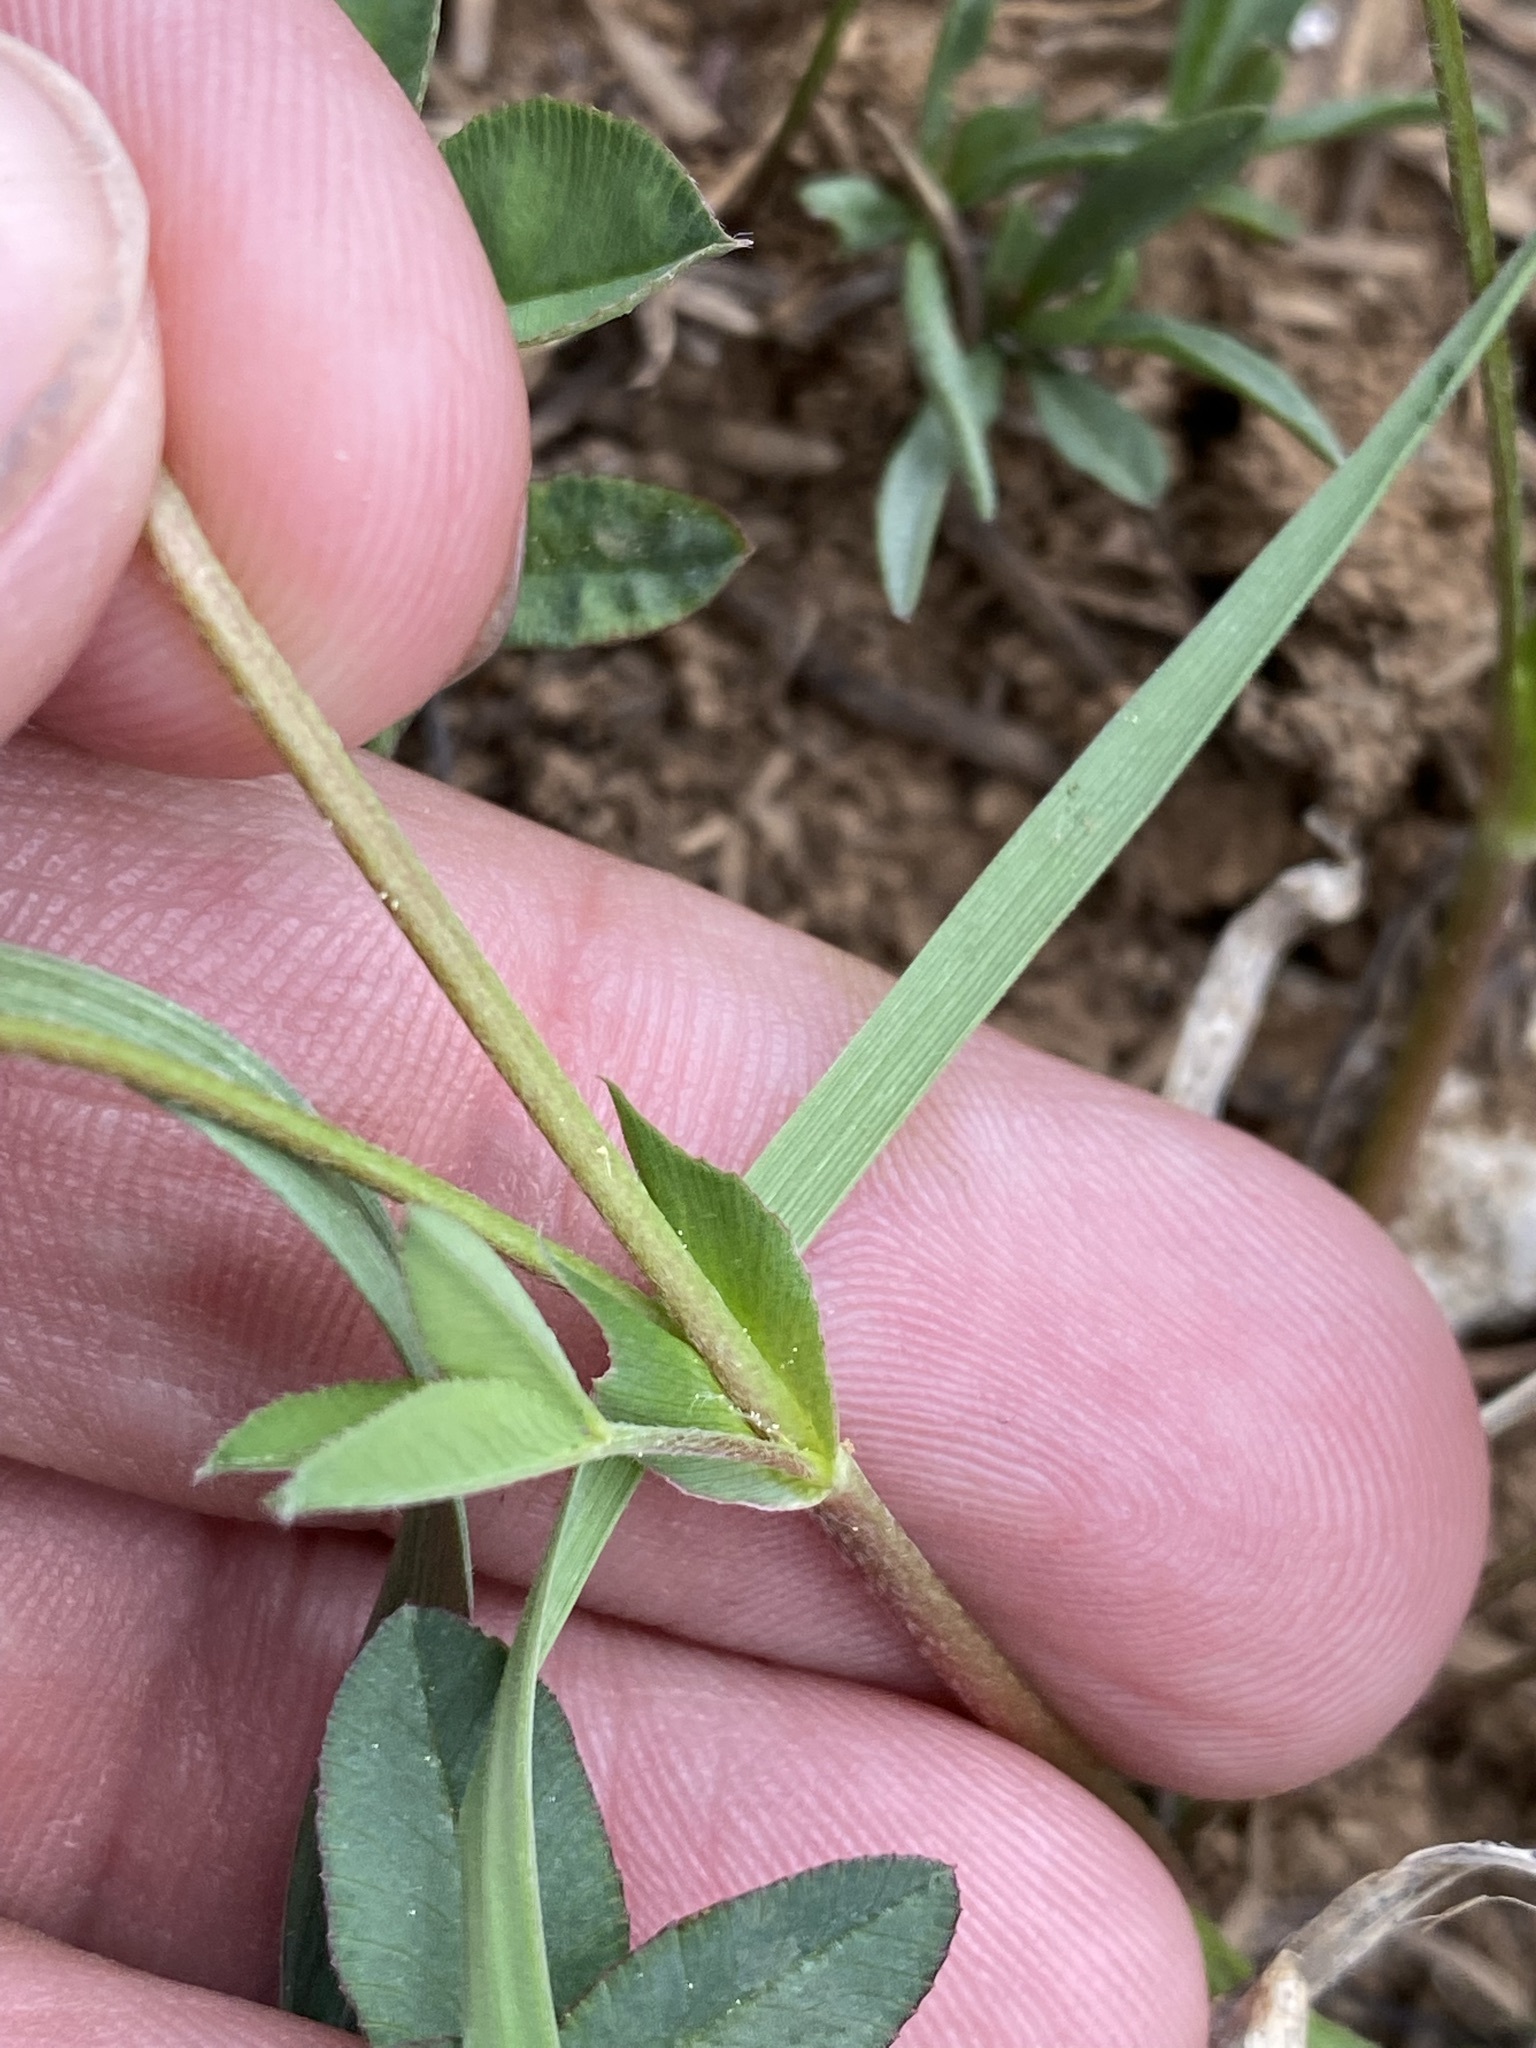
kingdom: Plantae
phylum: Tracheophyta
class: Magnoliopsida
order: Fabales
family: Fabaceae
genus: Trifolium
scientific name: Trifolium longipes
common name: Long-stalk clover
